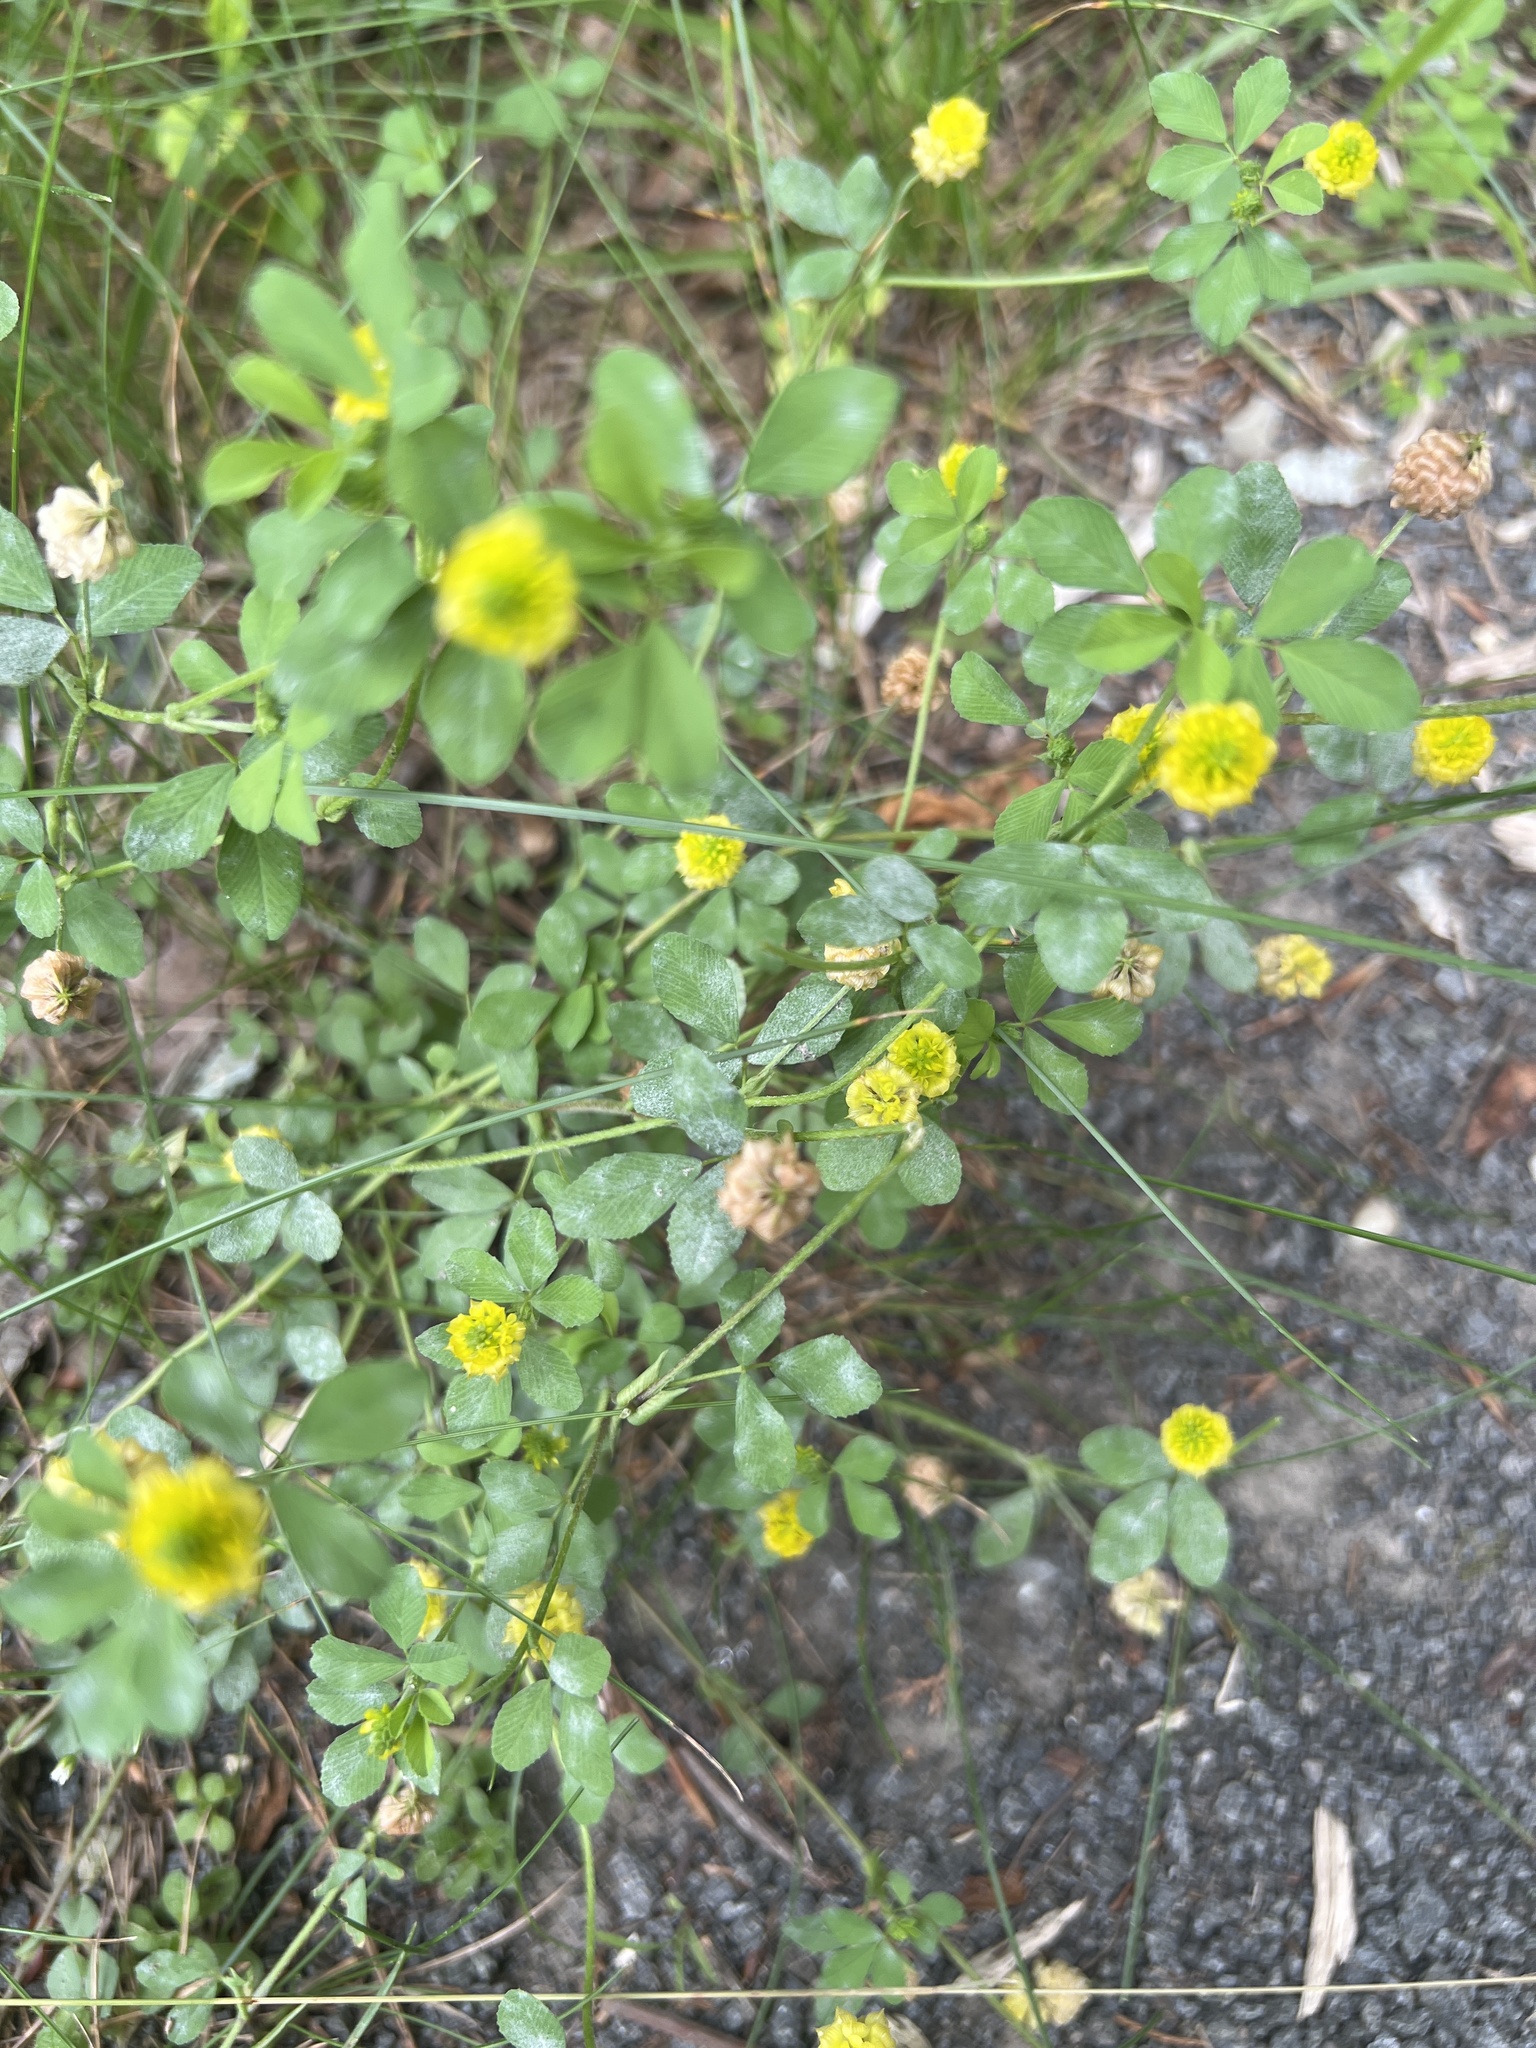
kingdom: Plantae
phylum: Tracheophyta
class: Magnoliopsida
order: Fabales
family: Fabaceae
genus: Trifolium
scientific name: Trifolium campestre
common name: Field clover
